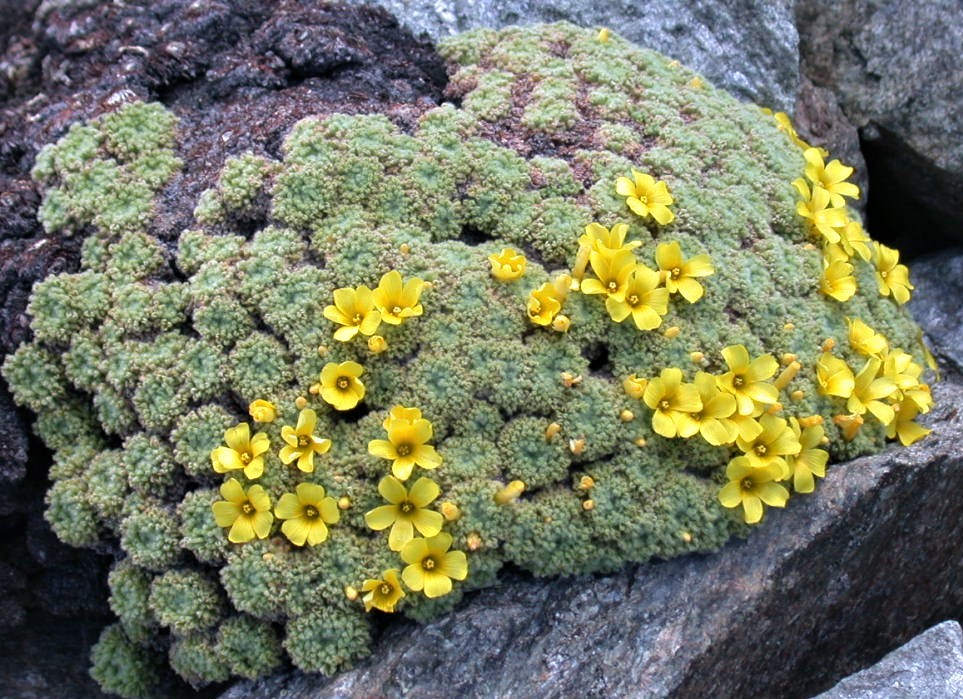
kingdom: Plantae
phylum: Tracheophyta
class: Magnoliopsida
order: Oxalidales
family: Oxalidaceae
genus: Oxalis
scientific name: Oxalis erythrorhiza
